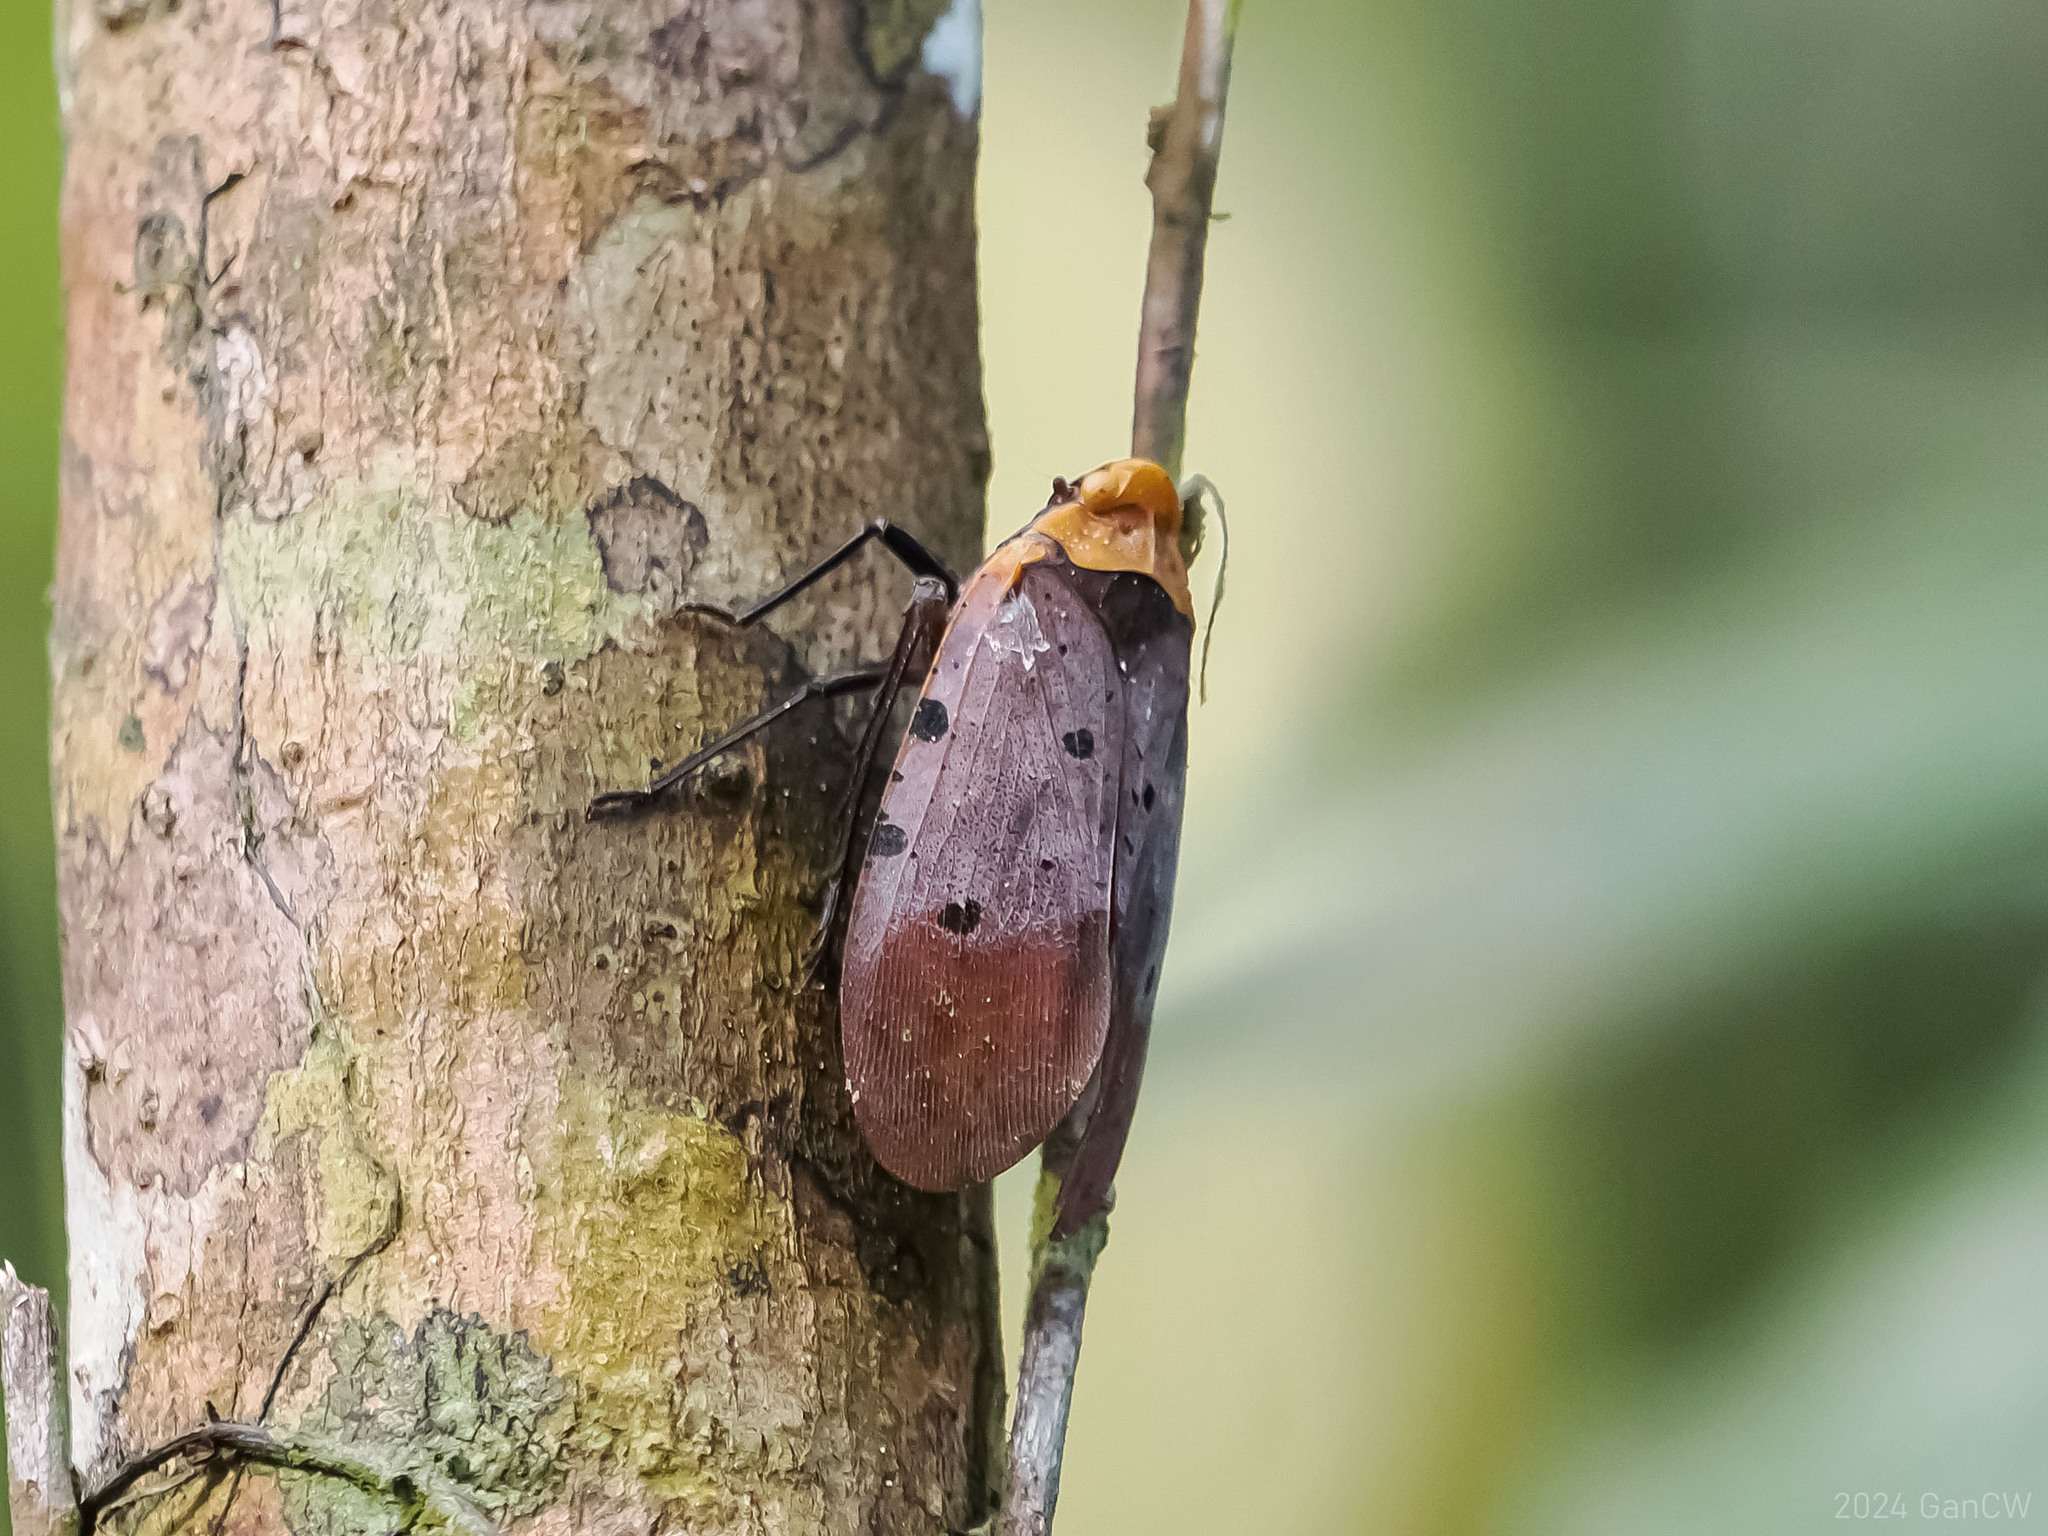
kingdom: Animalia
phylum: Arthropoda
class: Insecta
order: Hemiptera
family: Fulgoridae
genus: Penthicodes
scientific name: Penthicodes atomaria
